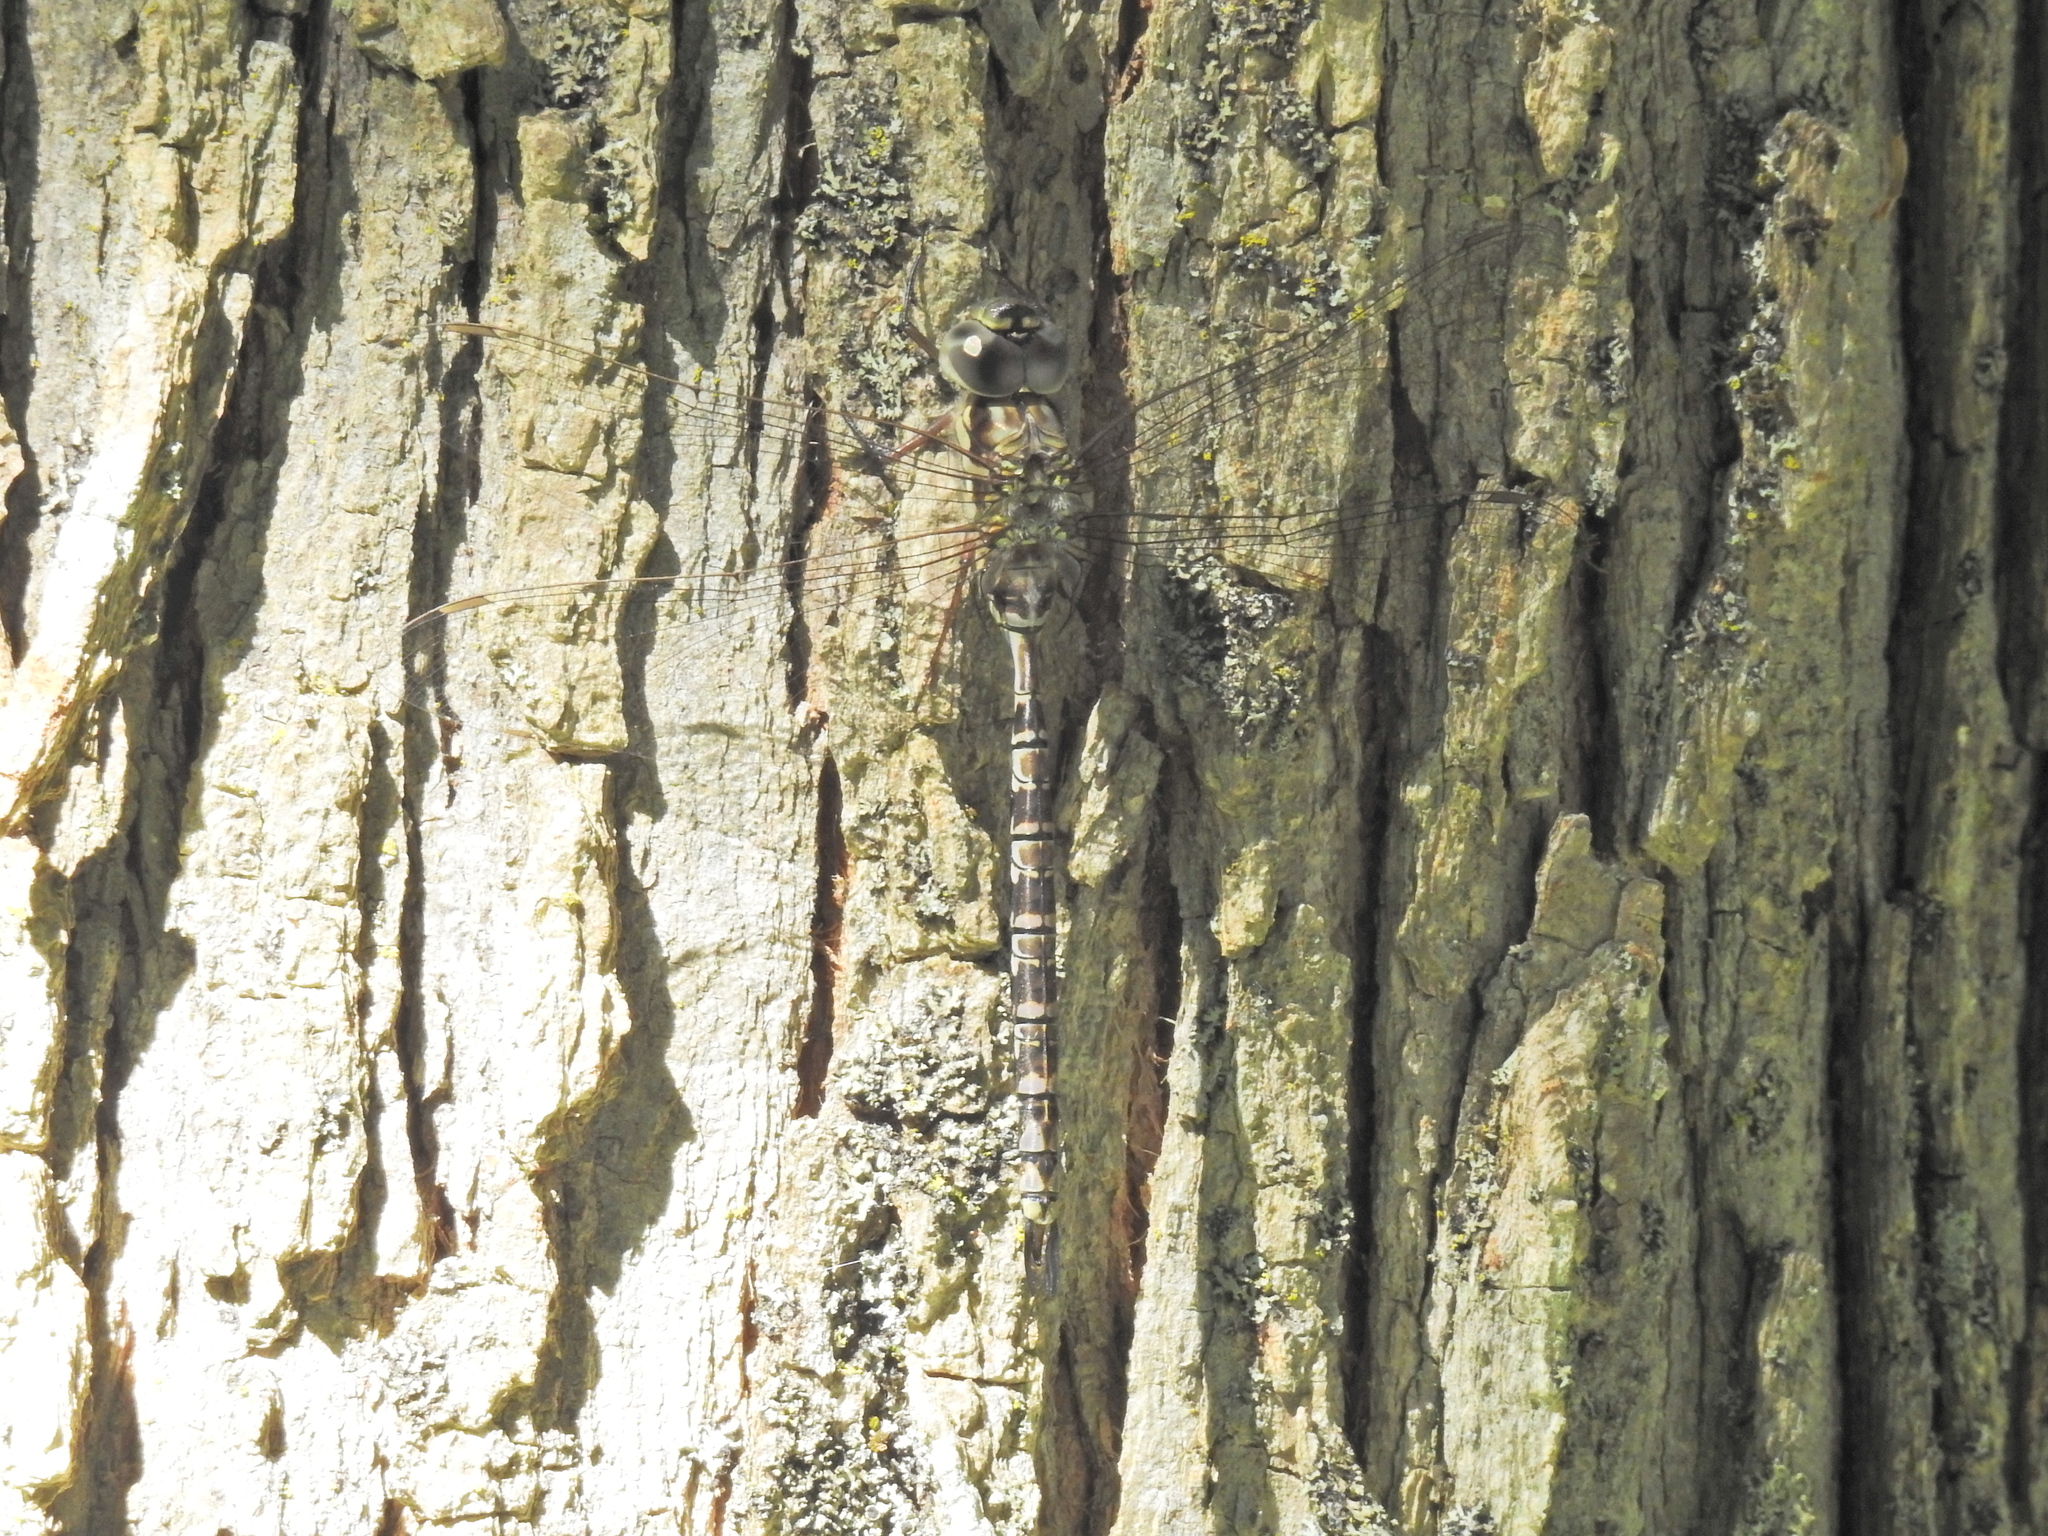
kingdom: Animalia
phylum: Arthropoda
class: Insecta
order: Odonata
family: Aeshnidae
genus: Aeshna
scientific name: Aeshna clepsydra
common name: Mottled darner
